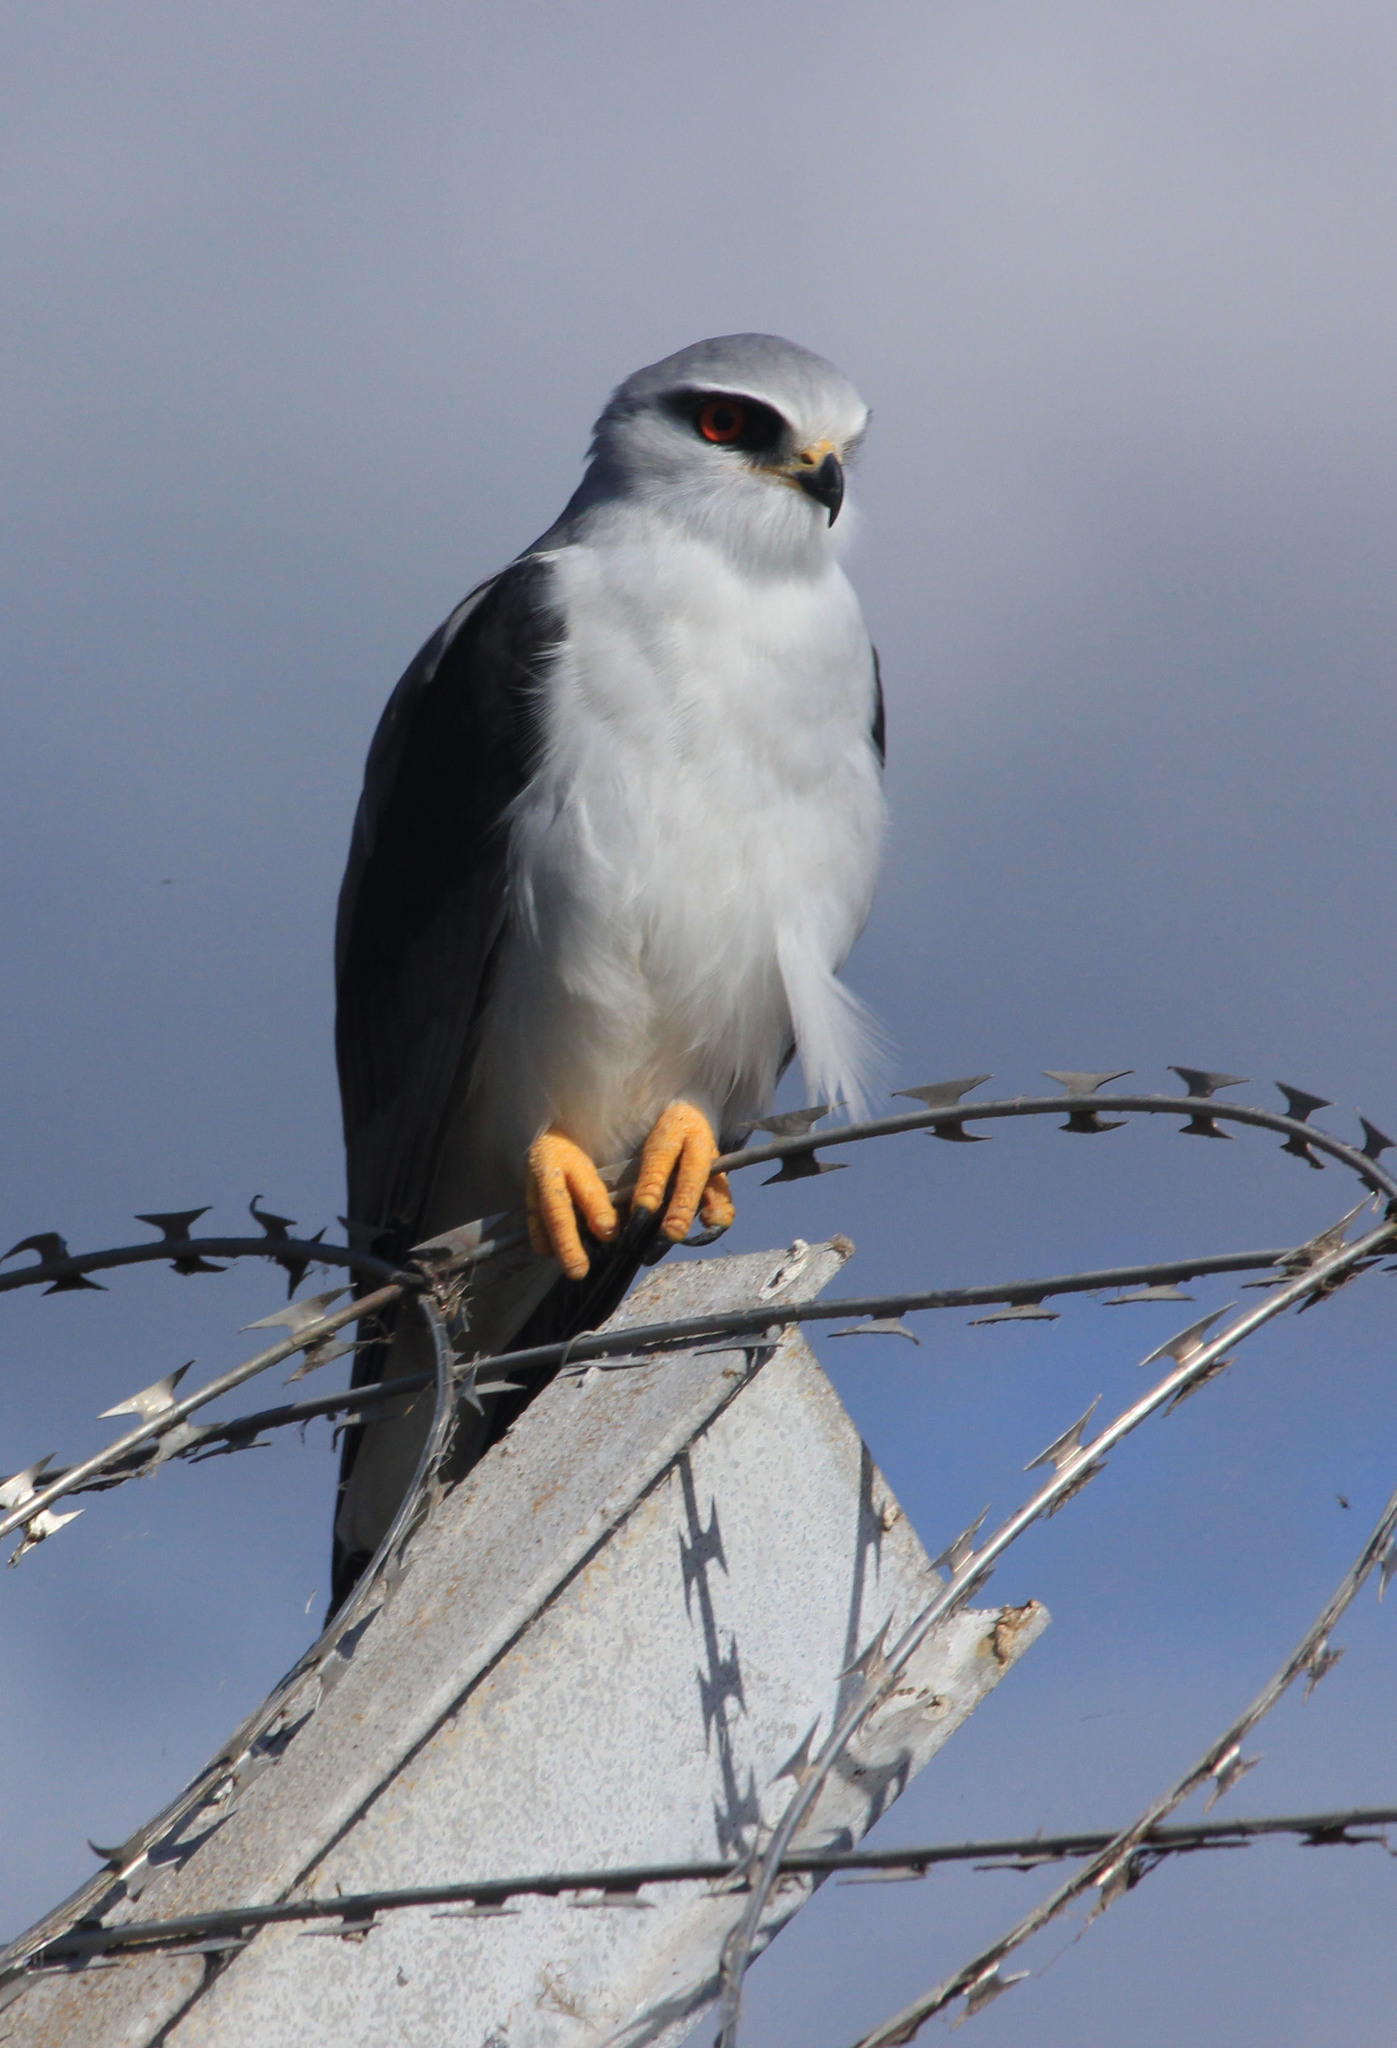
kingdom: Animalia
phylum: Chordata
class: Aves
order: Accipitriformes
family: Accipitridae
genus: Elanus
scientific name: Elanus caeruleus
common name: Black-winged kite
